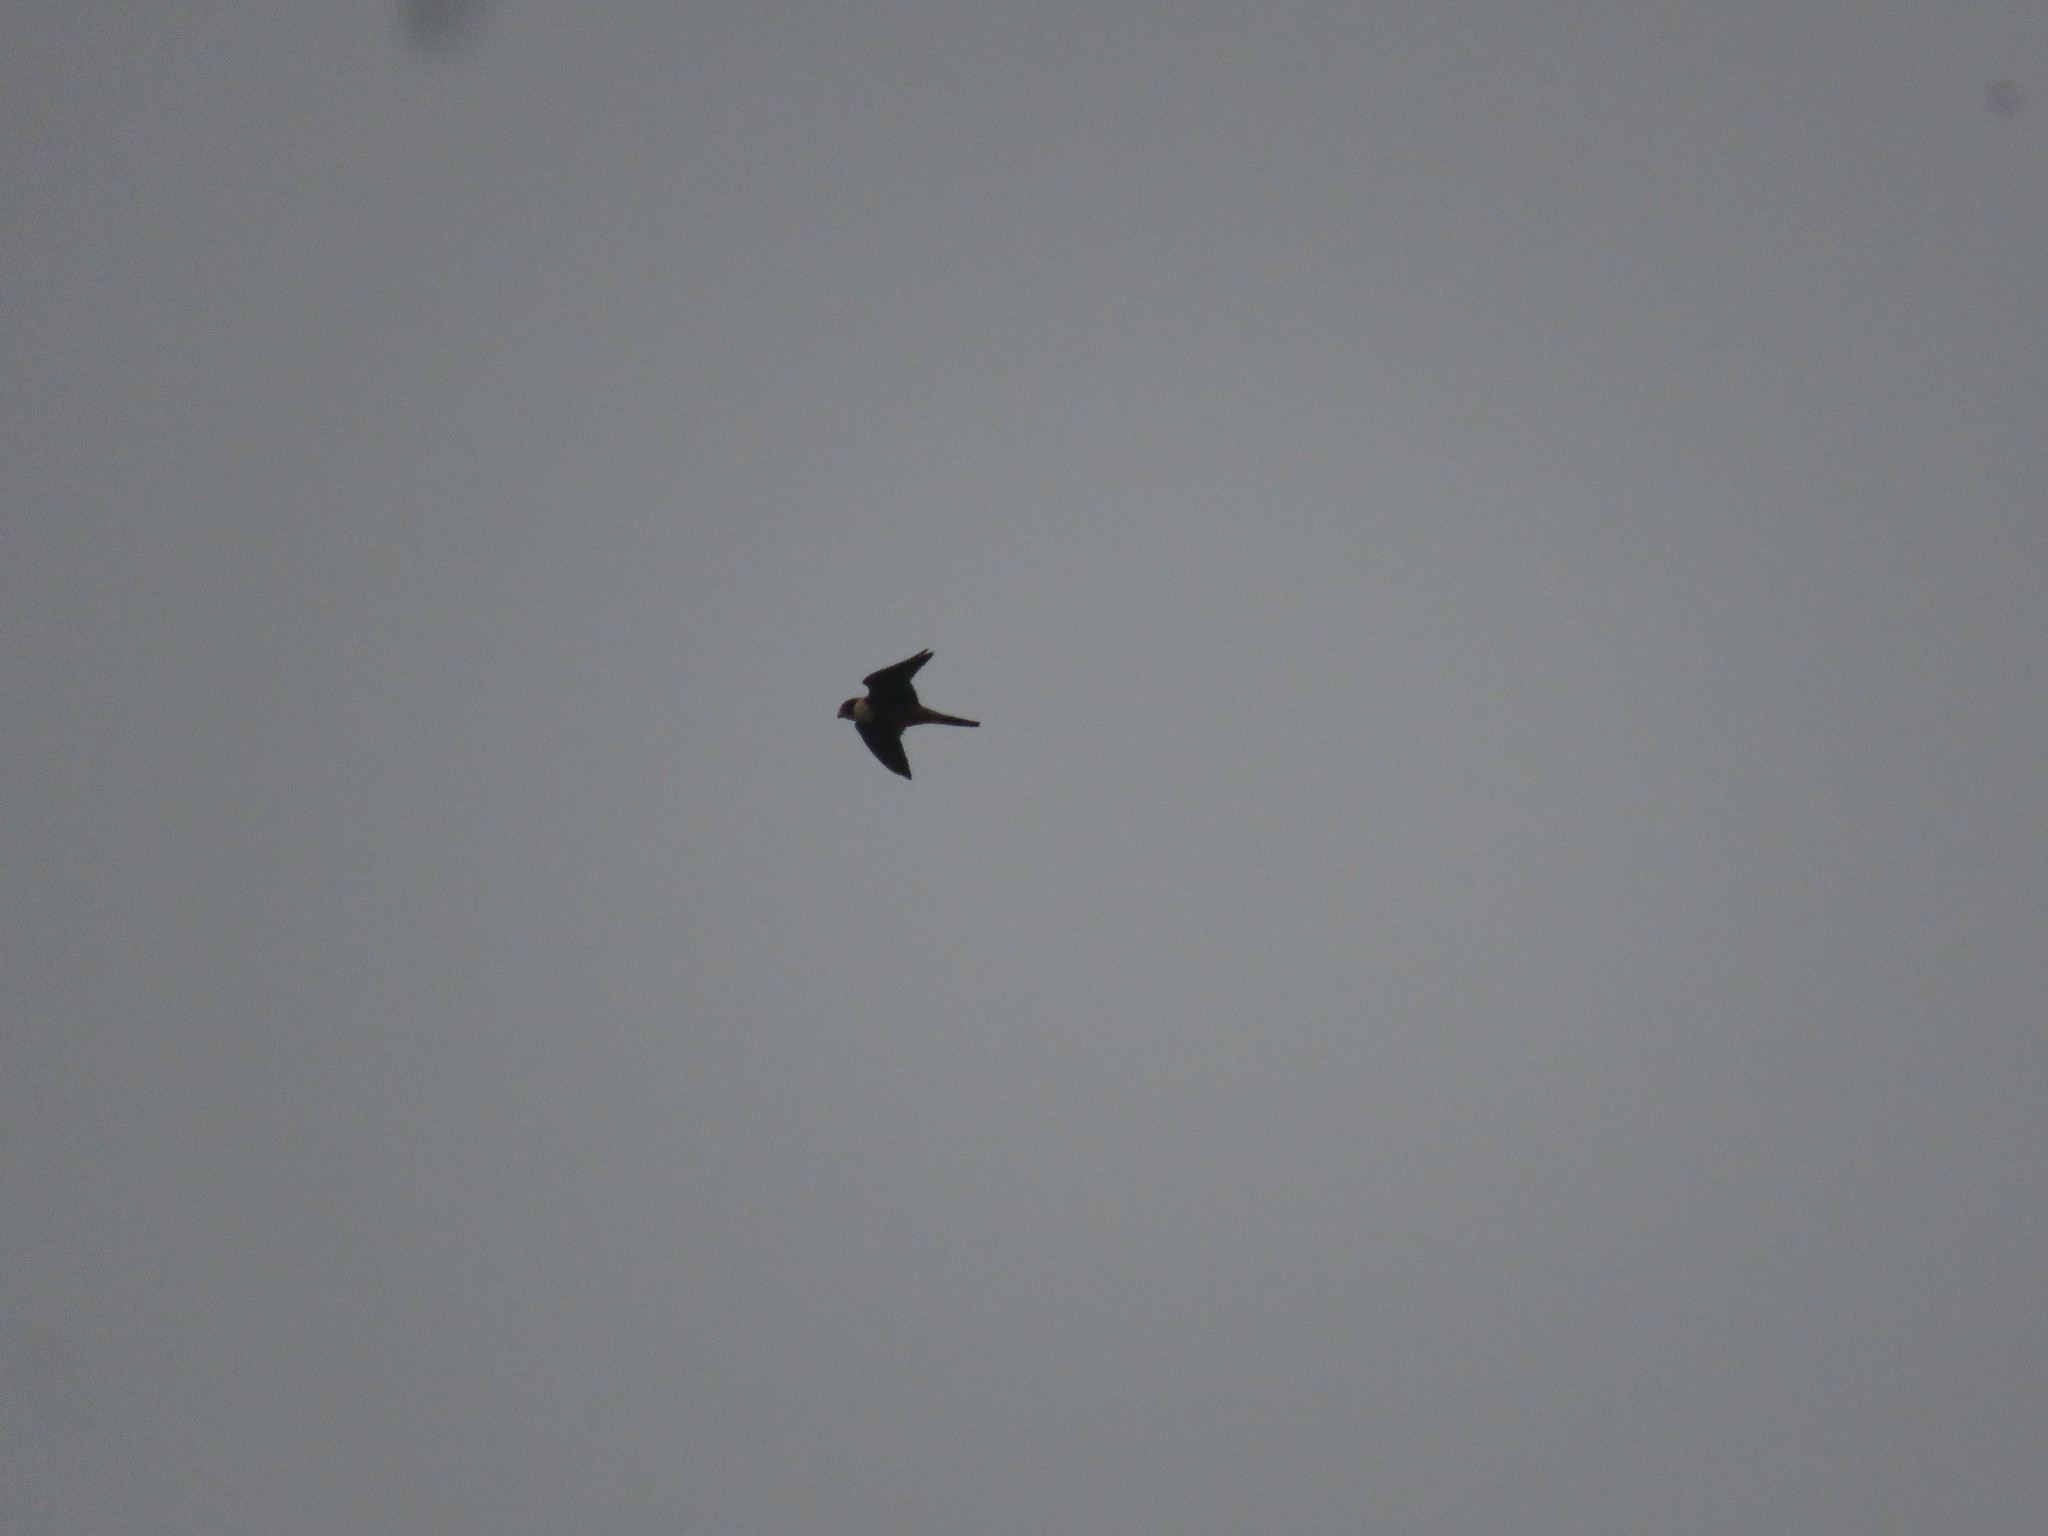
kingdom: Animalia
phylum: Chordata
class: Aves
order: Falconiformes
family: Falconidae
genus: Falco
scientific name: Falco rufigularis
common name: Bat falcon
